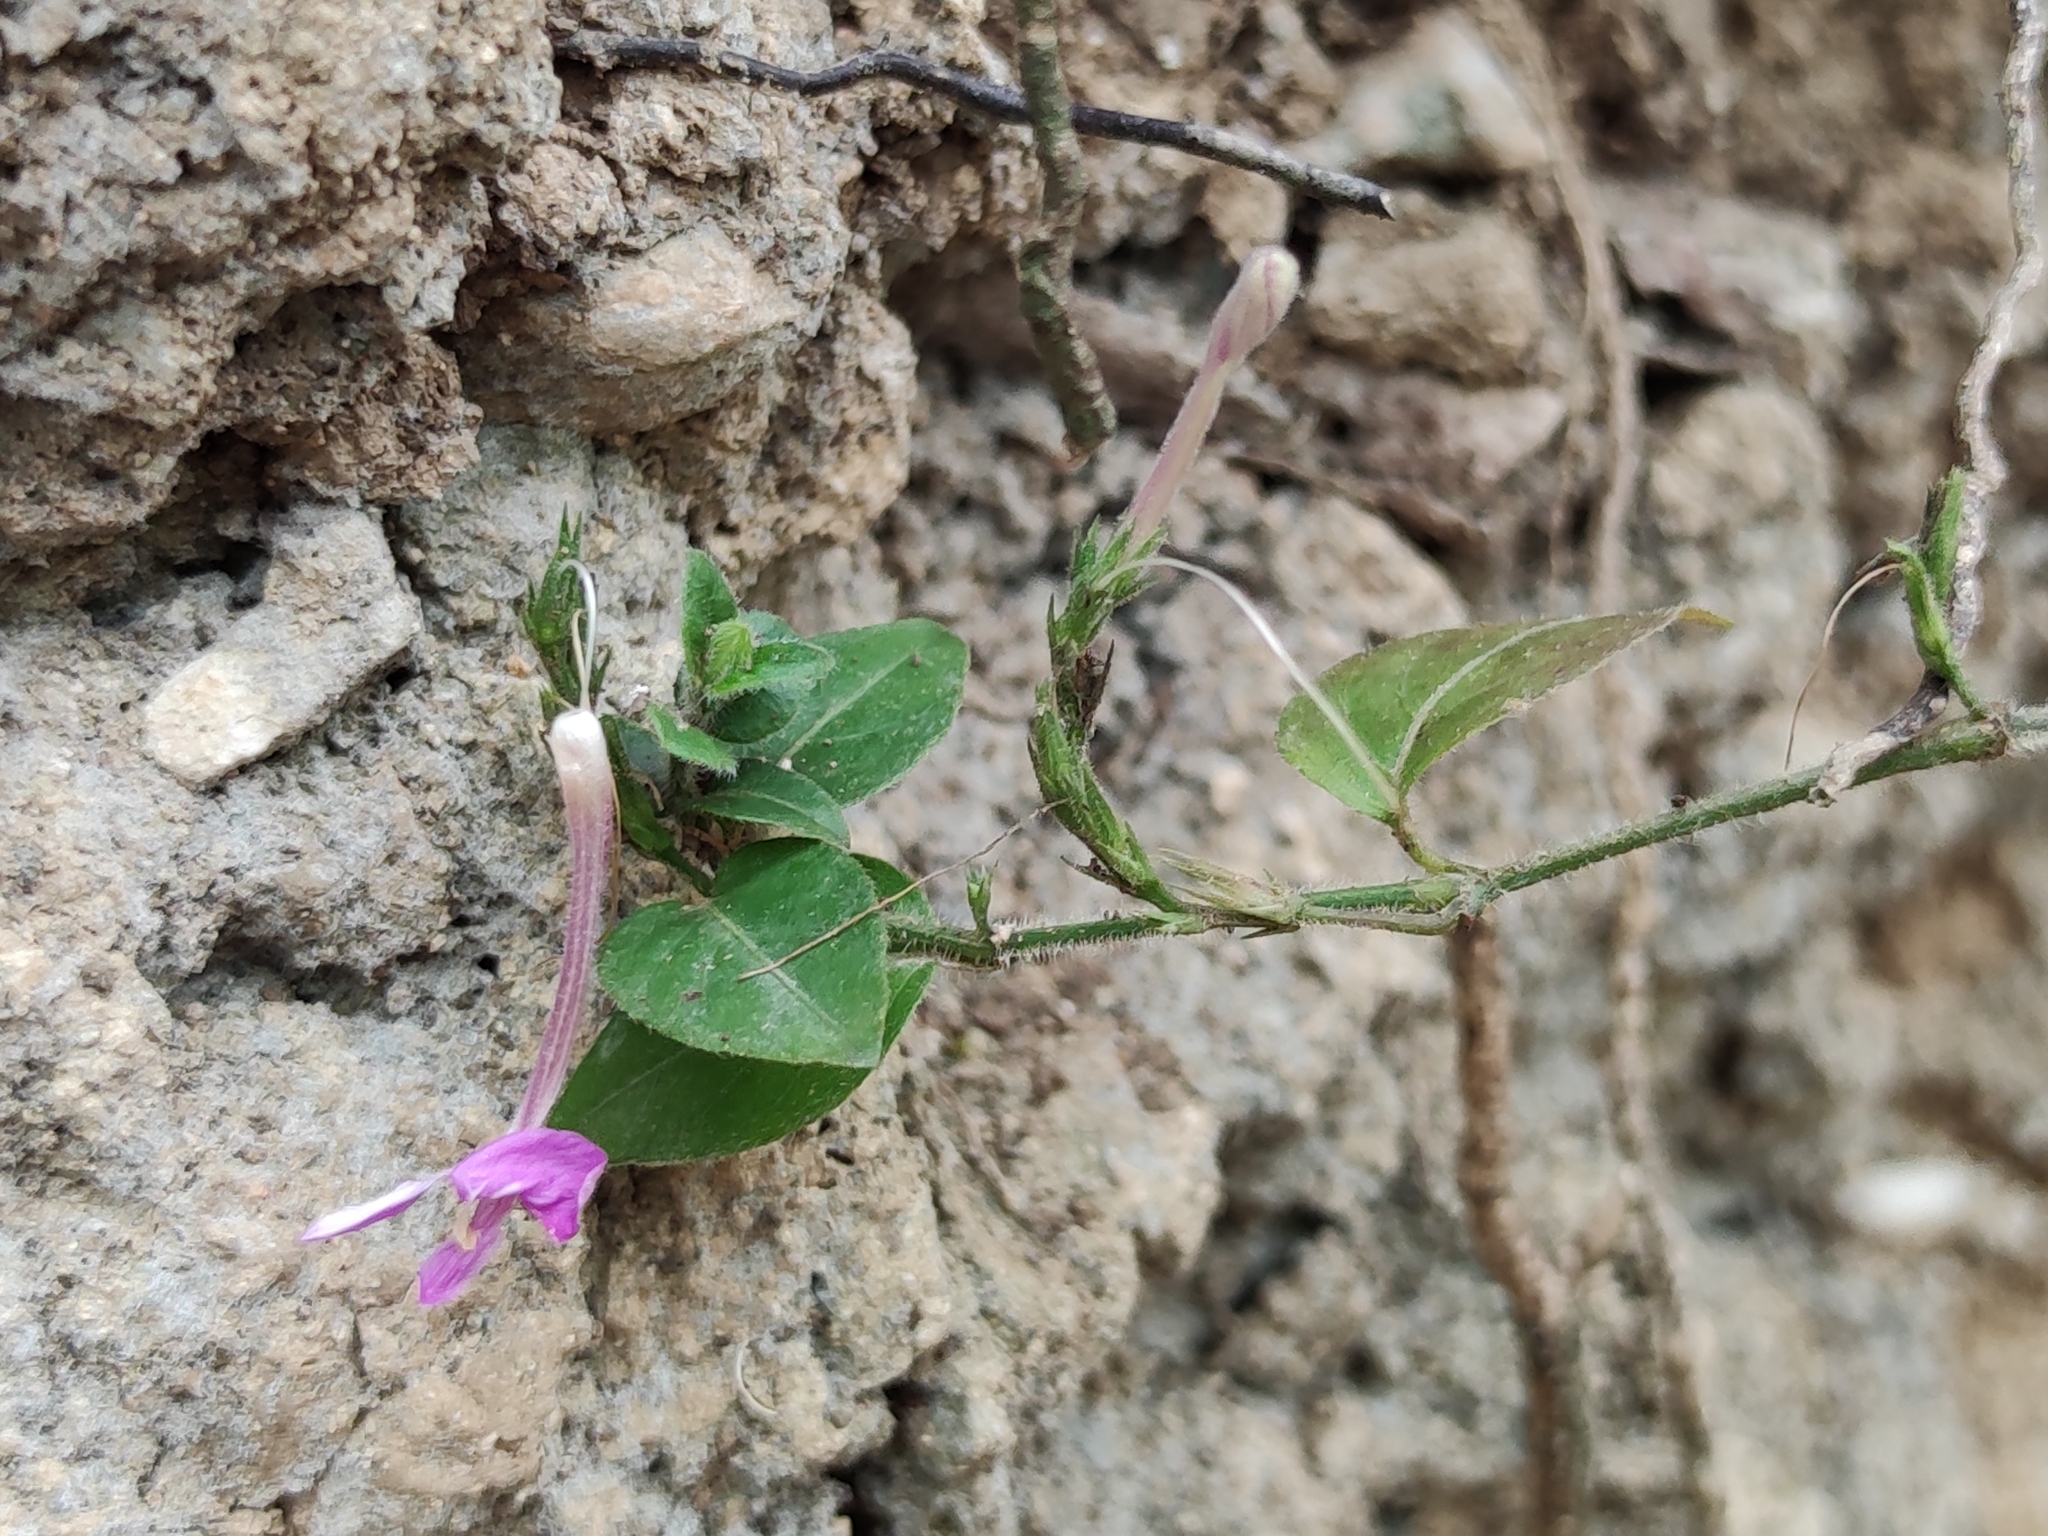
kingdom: Plantae
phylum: Tracheophyta
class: Magnoliopsida
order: Lamiales
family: Acanthaceae
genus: Justicia
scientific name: Justicia pilosella
